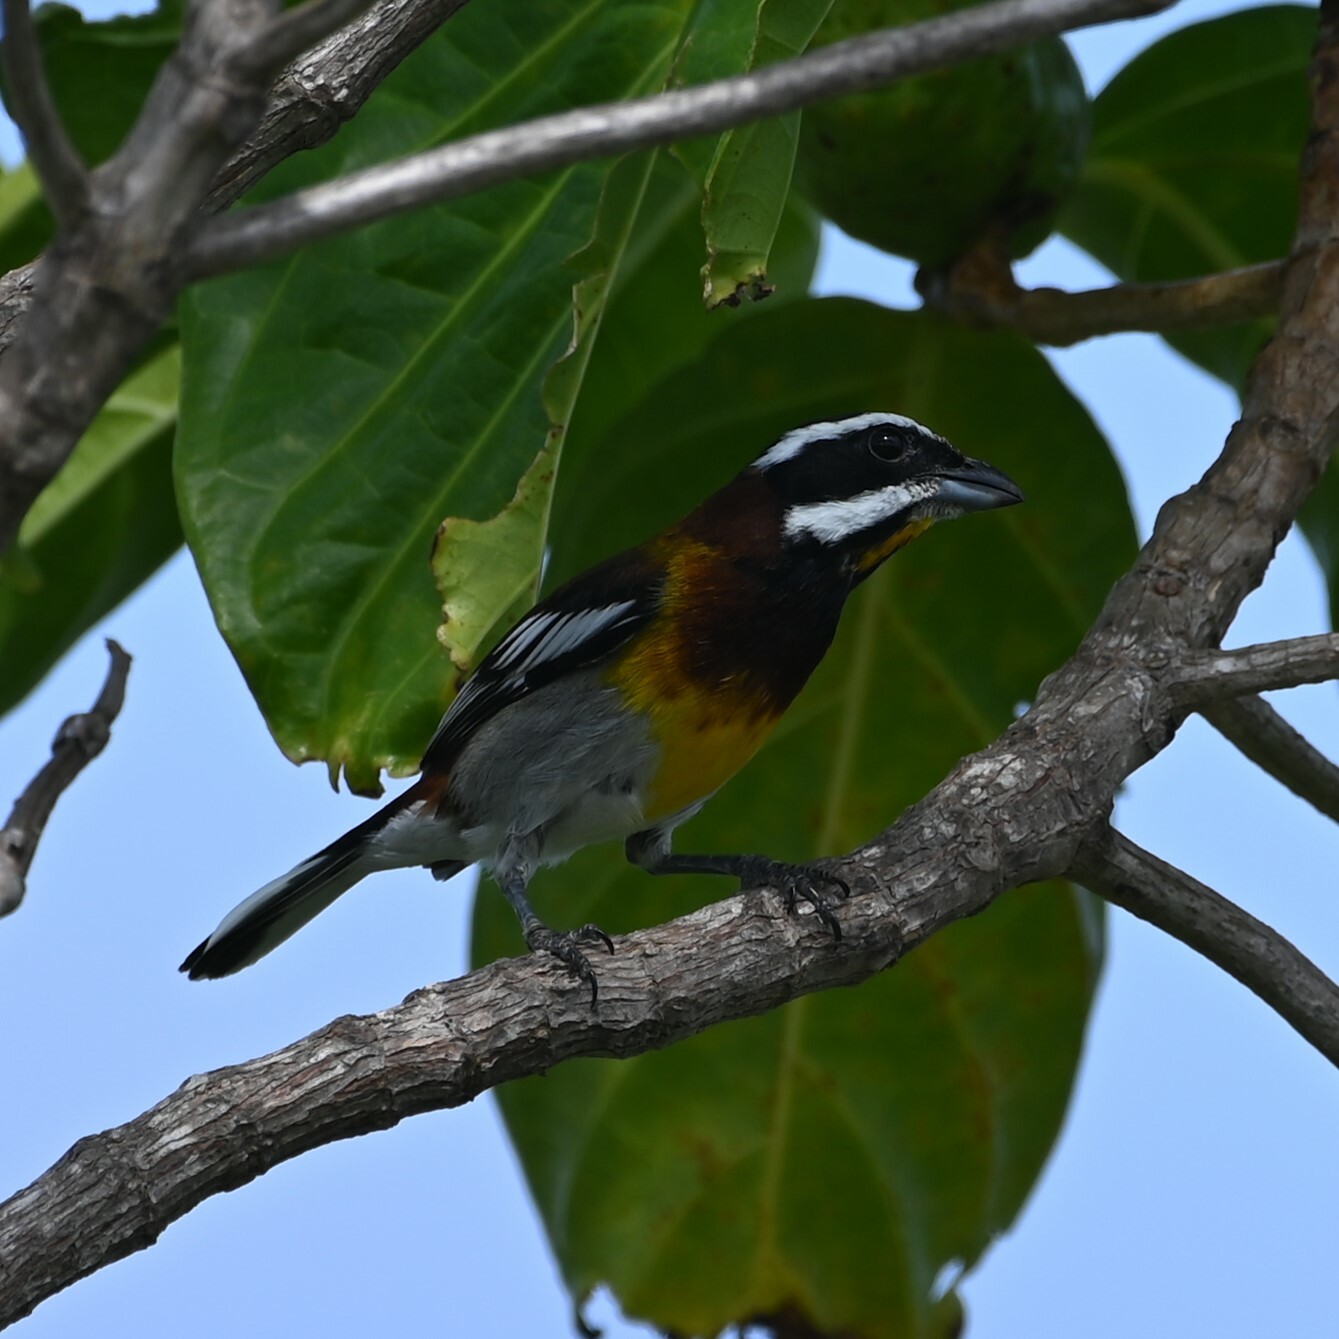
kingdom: Animalia
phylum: Chordata
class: Aves
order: Passeriformes
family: Spindalidae
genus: Spindalis
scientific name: Spindalis zena
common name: Western spindalis
